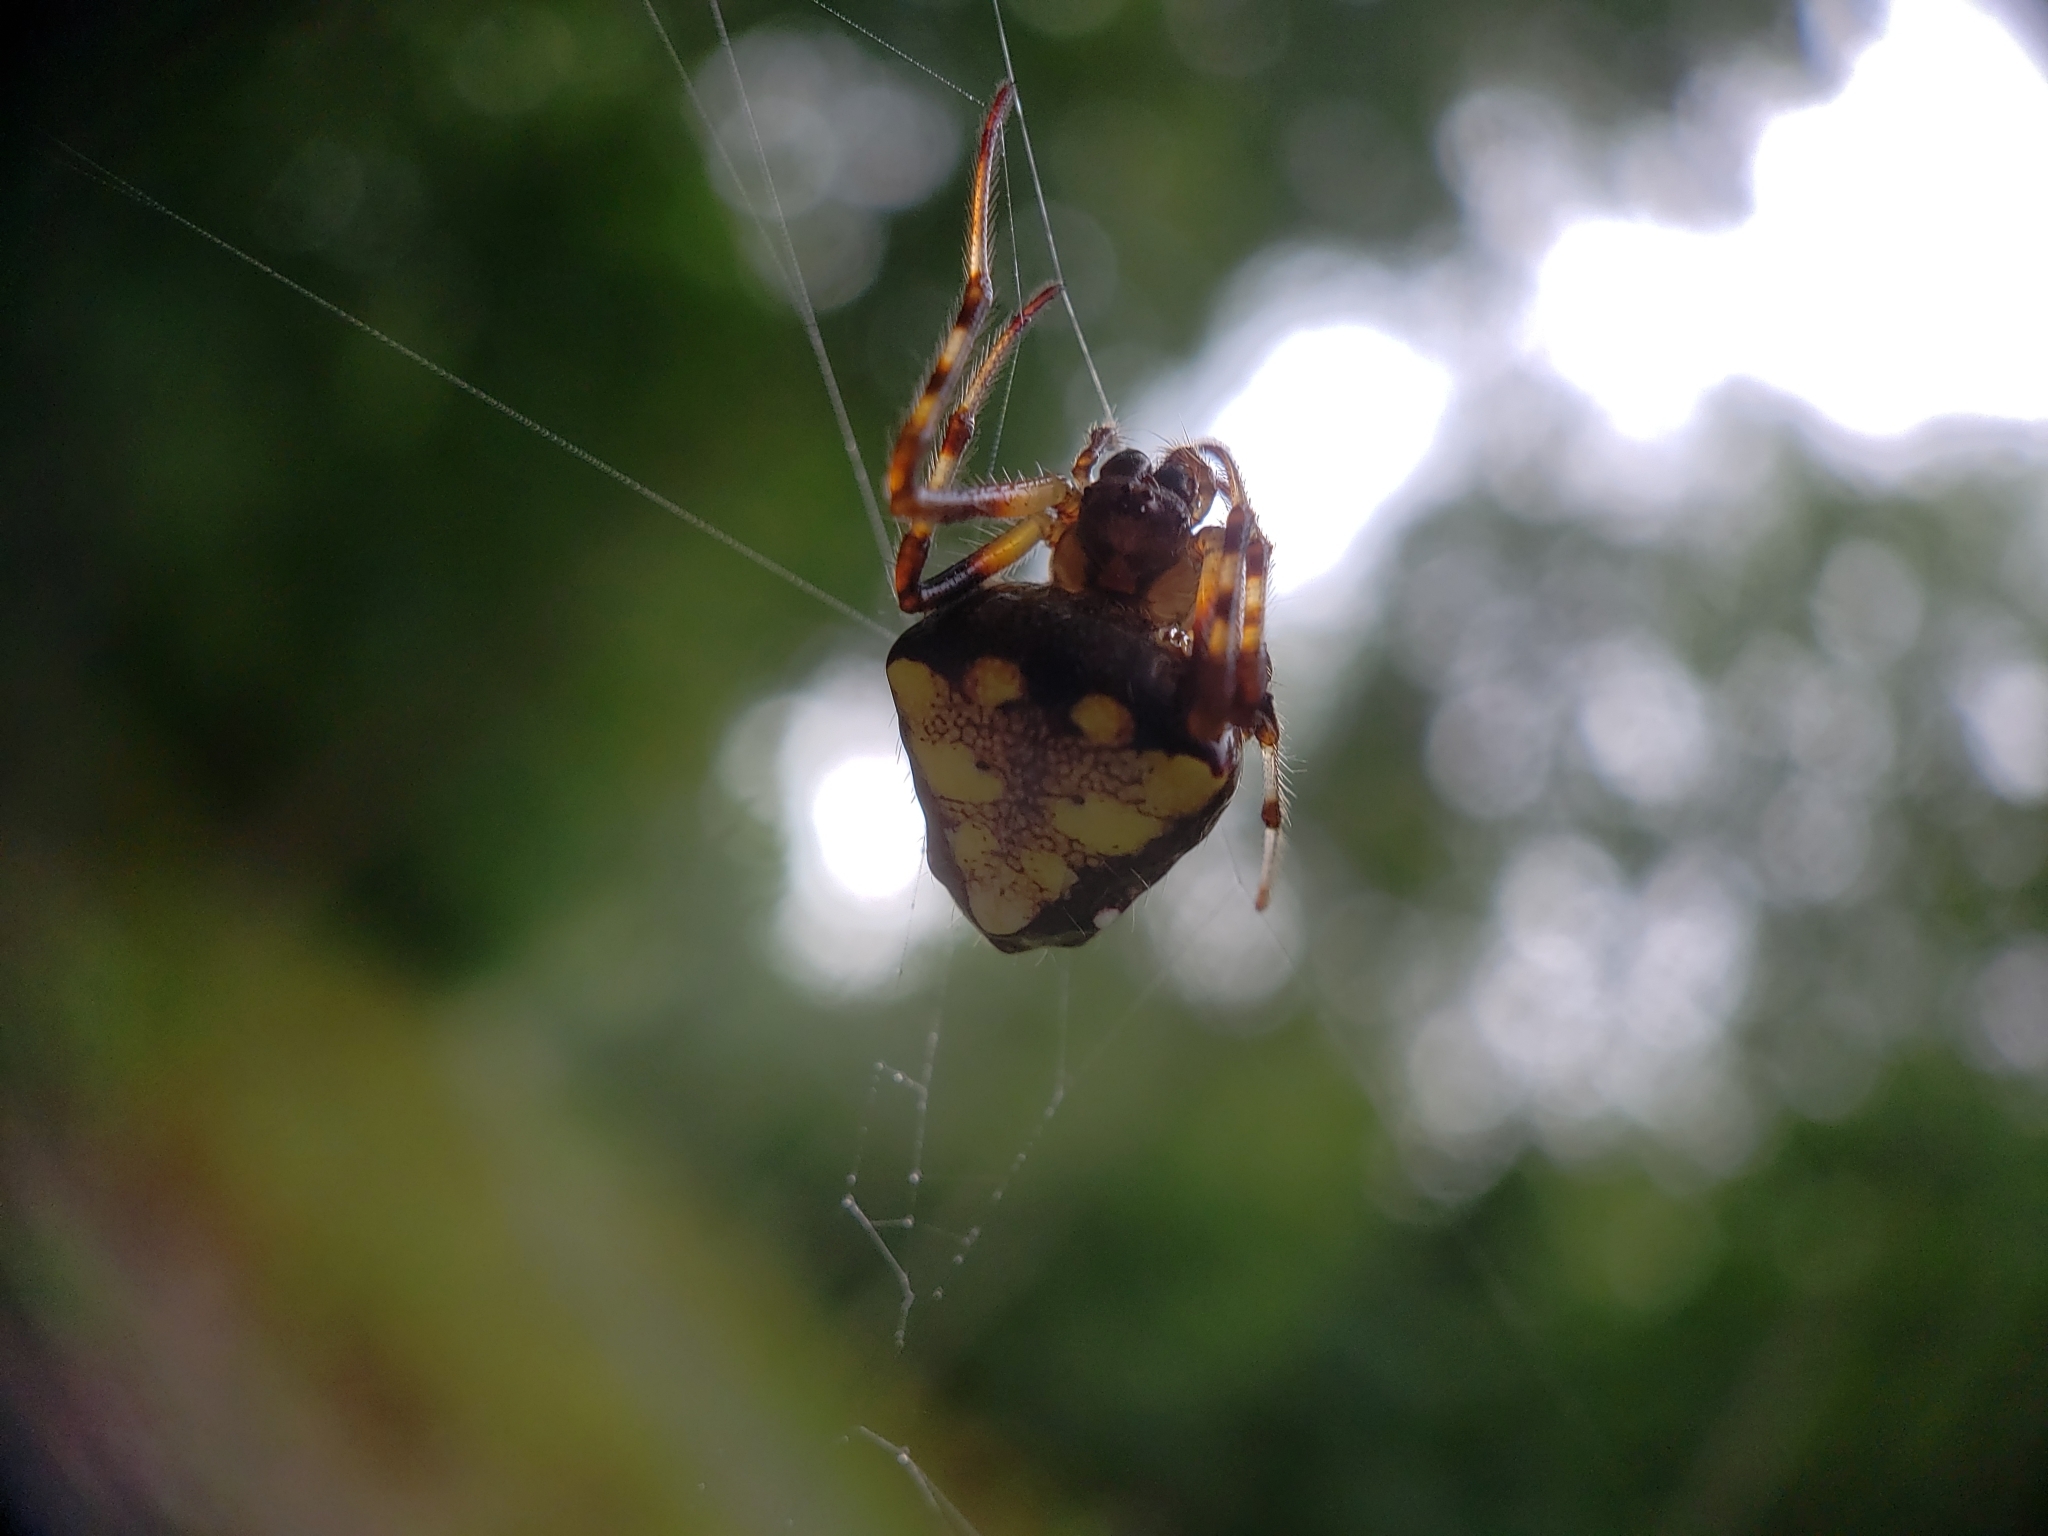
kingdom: Animalia
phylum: Arthropoda
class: Arachnida
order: Araneae
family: Araneidae
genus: Verrucosa
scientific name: Verrucosa arenata
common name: Orb weavers
